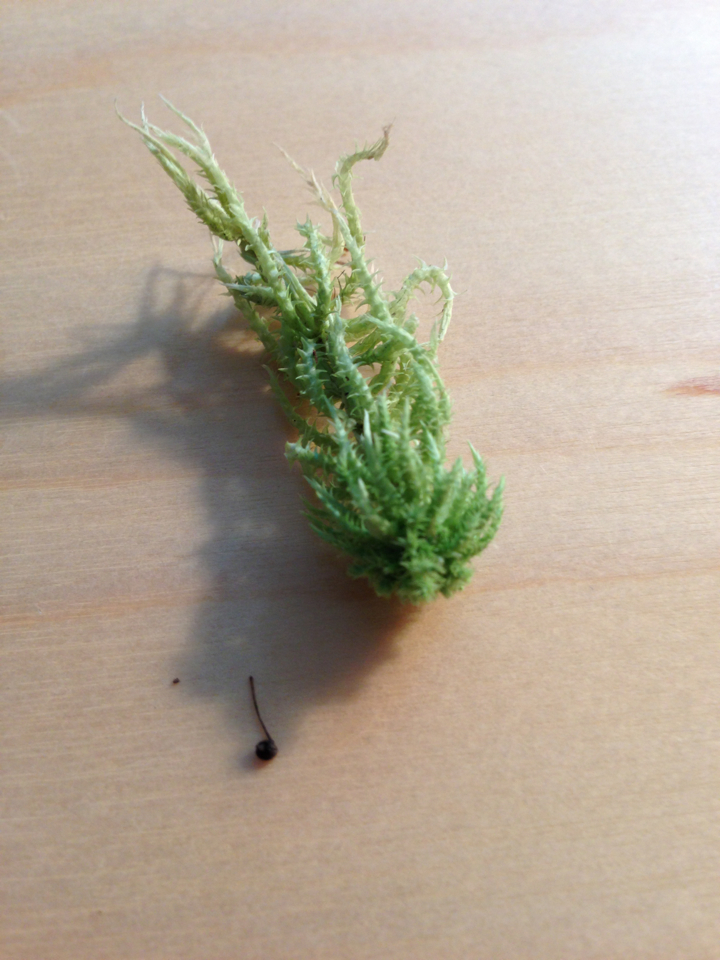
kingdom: Plantae
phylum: Bryophyta
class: Sphagnopsida
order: Sphagnales
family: Sphagnaceae
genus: Sphagnum
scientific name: Sphagnum squarrosum
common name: Shaggy peat moss
